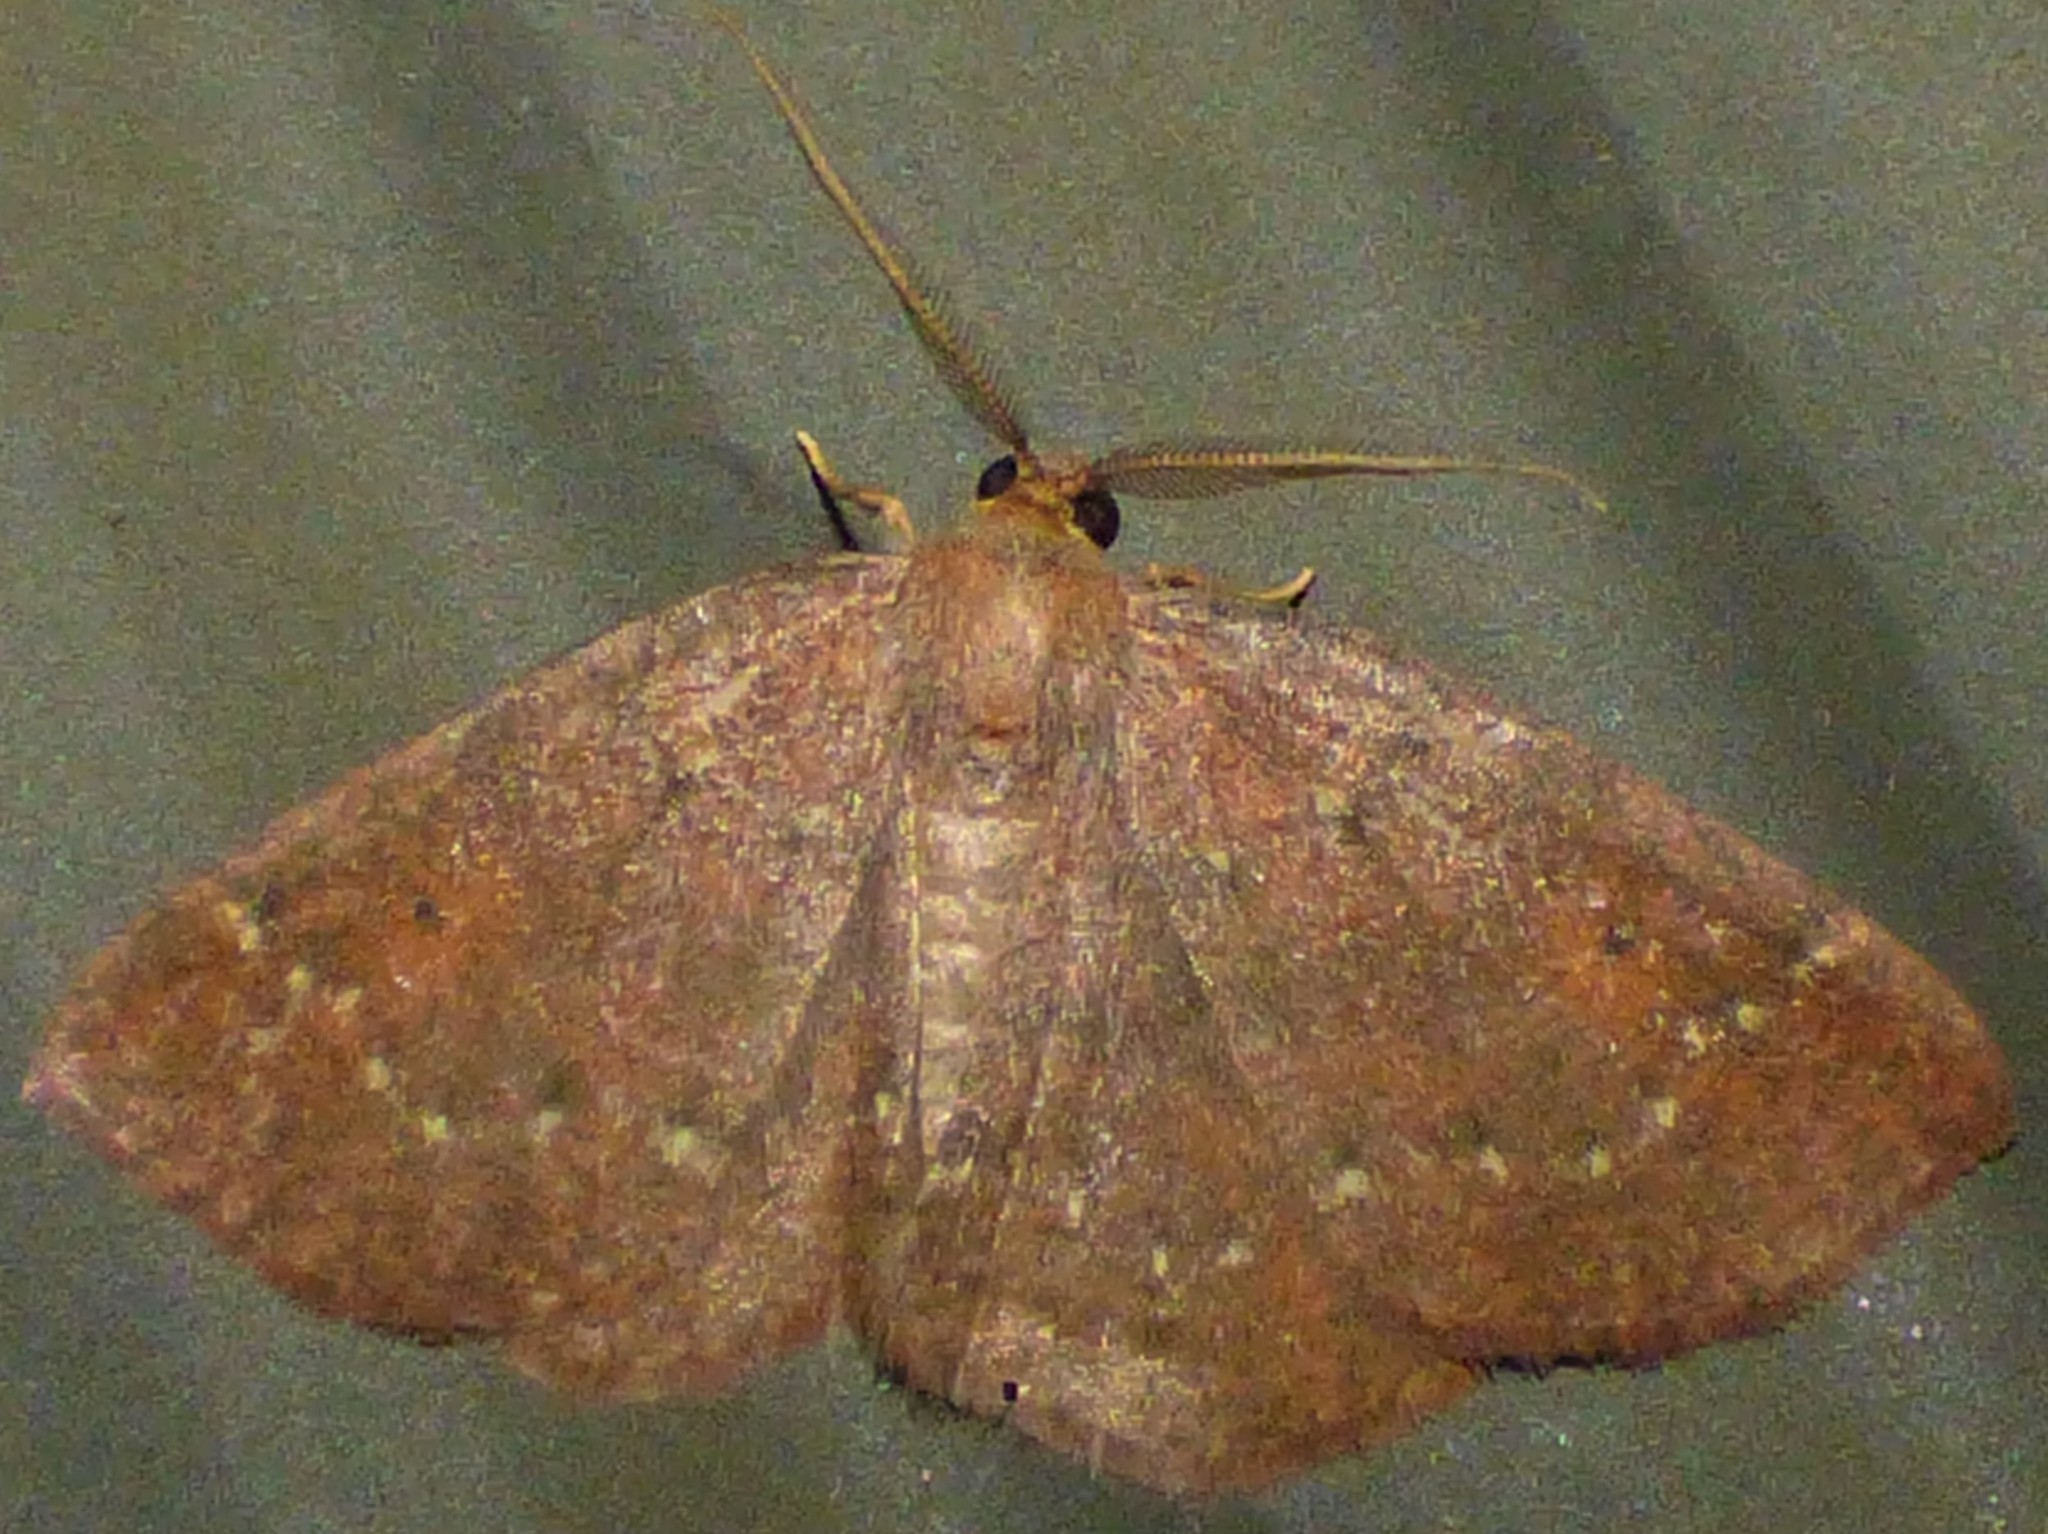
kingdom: Animalia
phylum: Arthropoda
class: Insecta
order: Lepidoptera
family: Geometridae
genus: Ilexia
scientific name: Ilexia intractata
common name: Black-dotted ruddy moth
